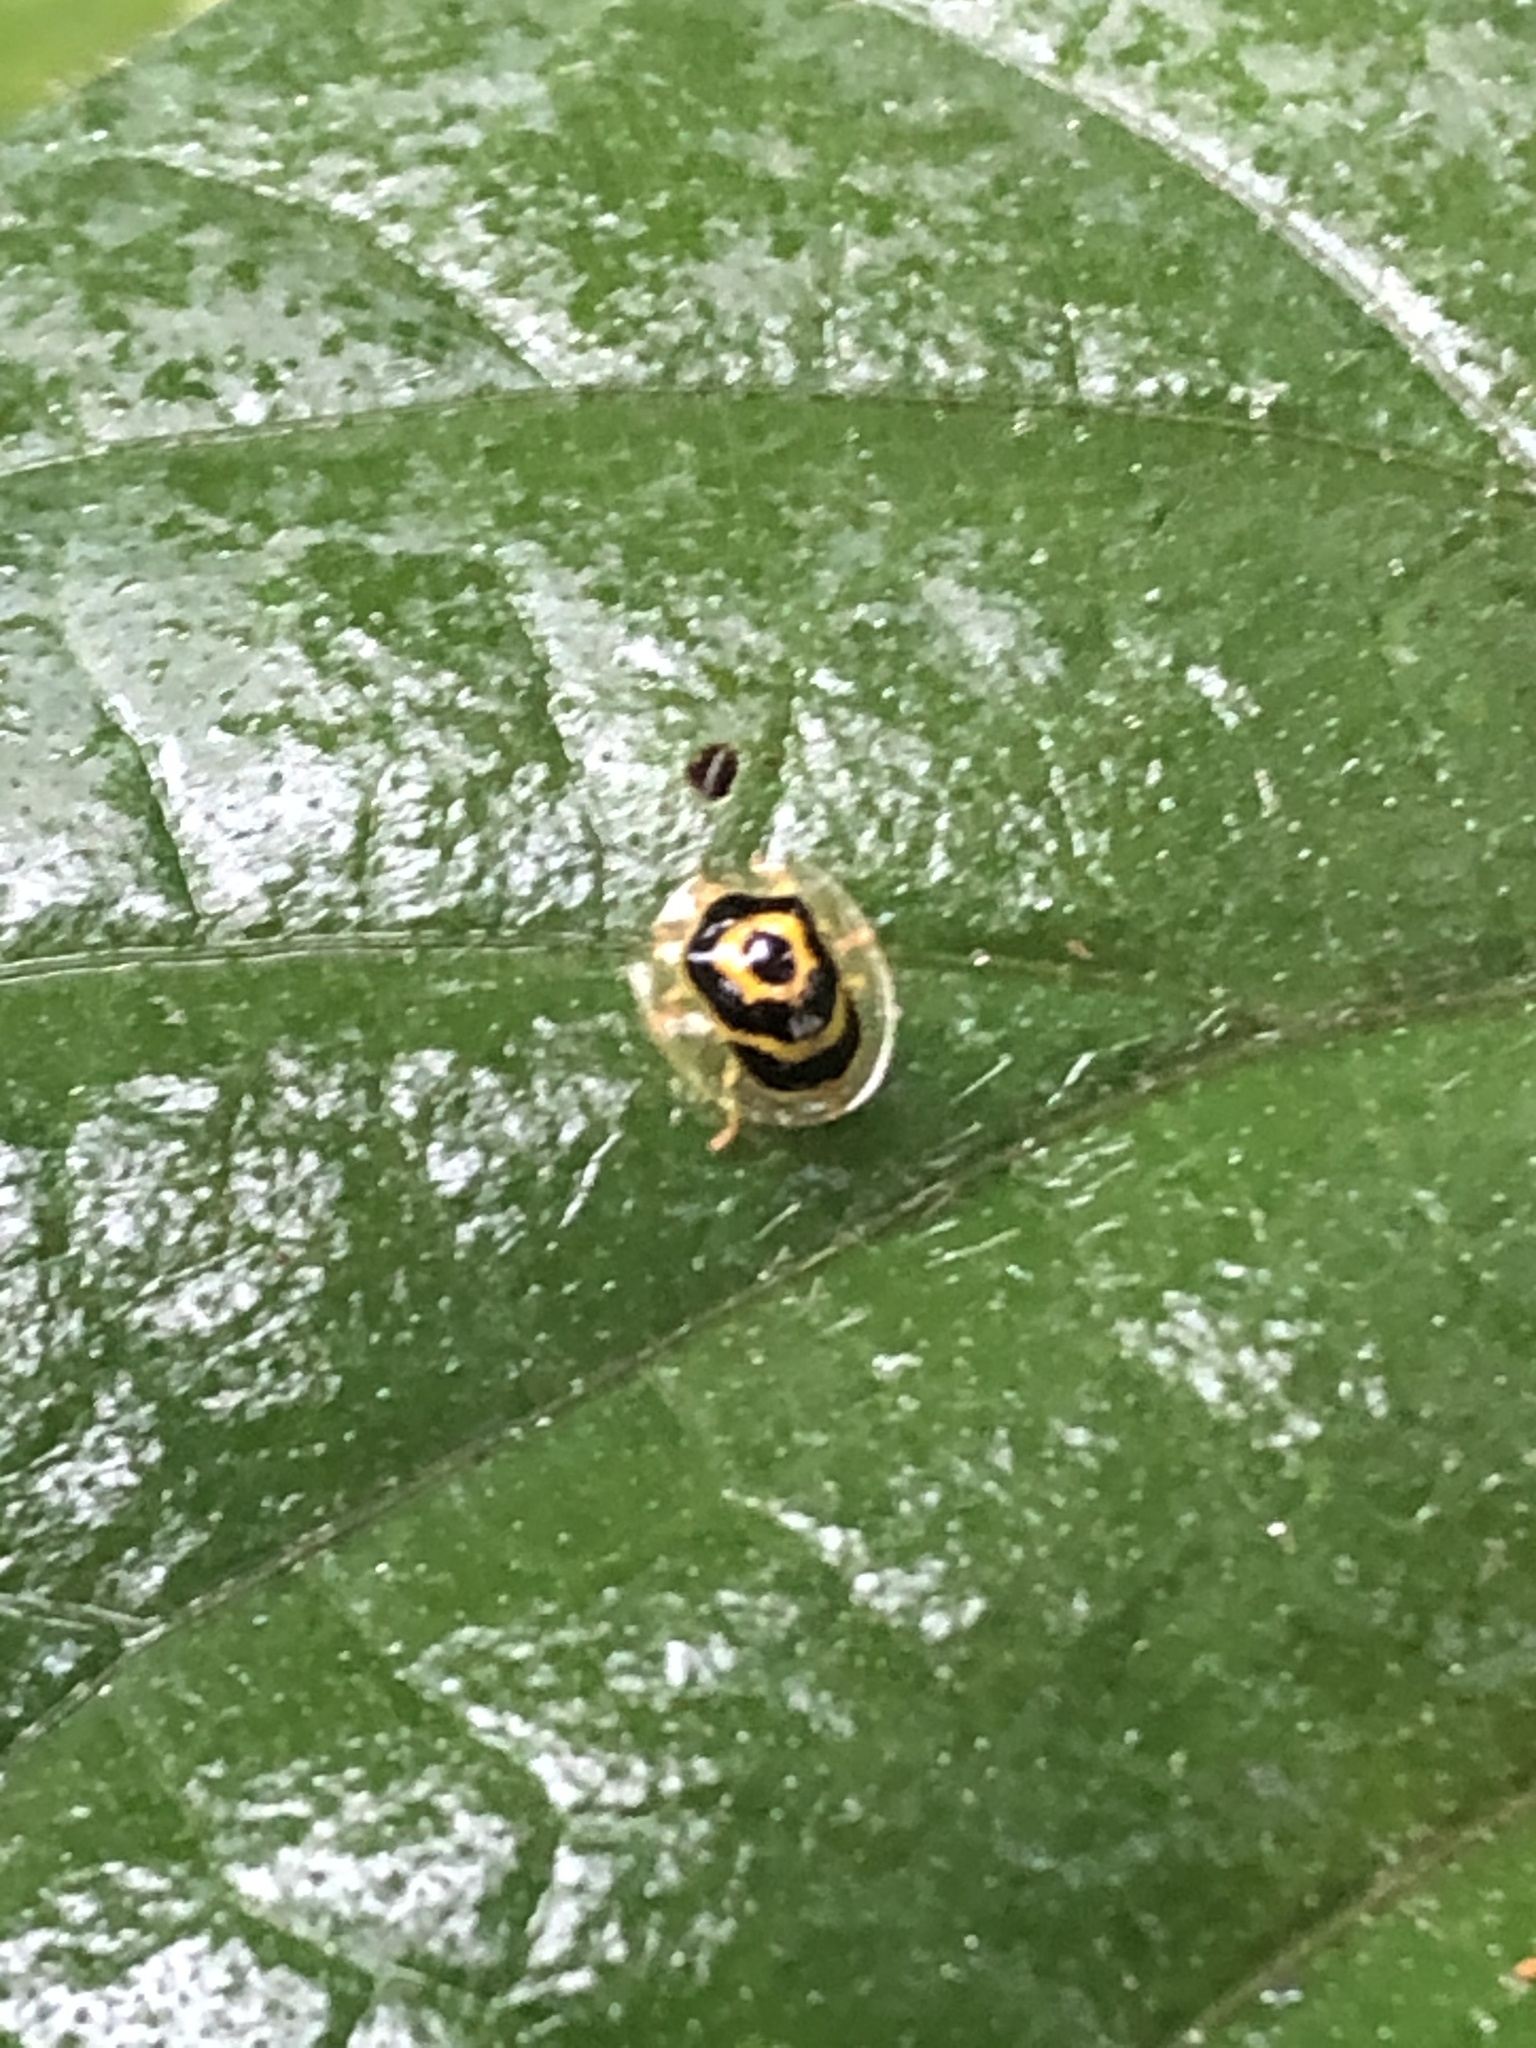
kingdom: Animalia
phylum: Arthropoda
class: Insecta
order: Coleoptera
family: Chrysomelidae
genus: Ischnocodia
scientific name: Ischnocodia annulus
